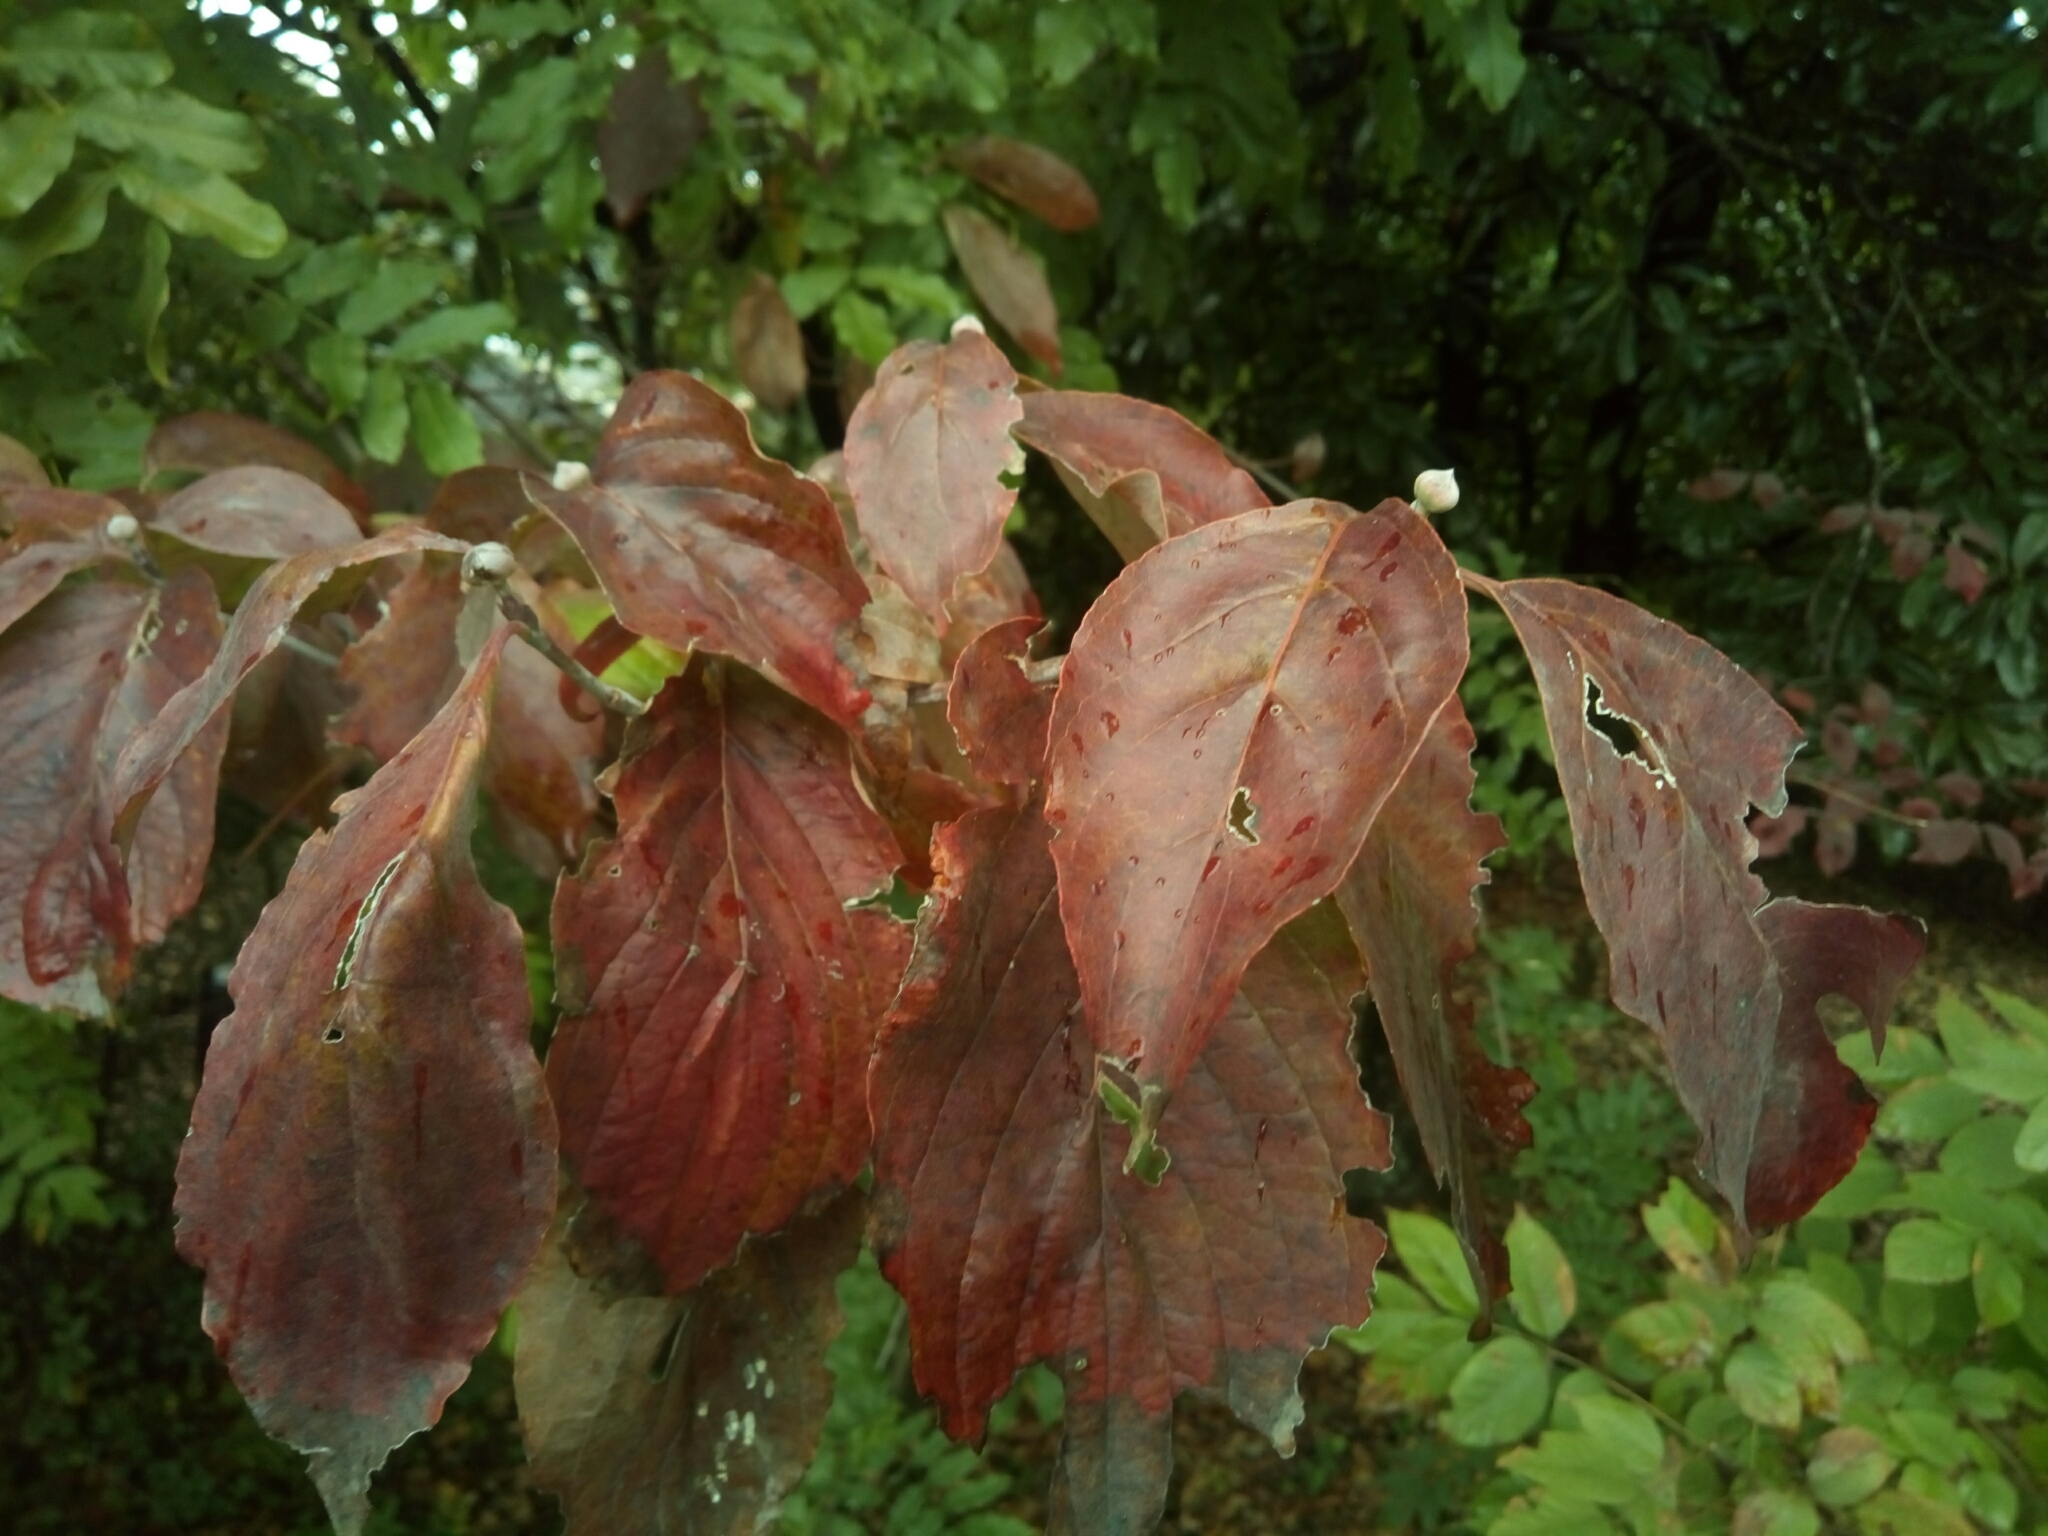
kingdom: Plantae
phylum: Tracheophyta
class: Magnoliopsida
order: Cornales
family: Cornaceae
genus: Cornus
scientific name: Cornus florida
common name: Flowering dogwood
